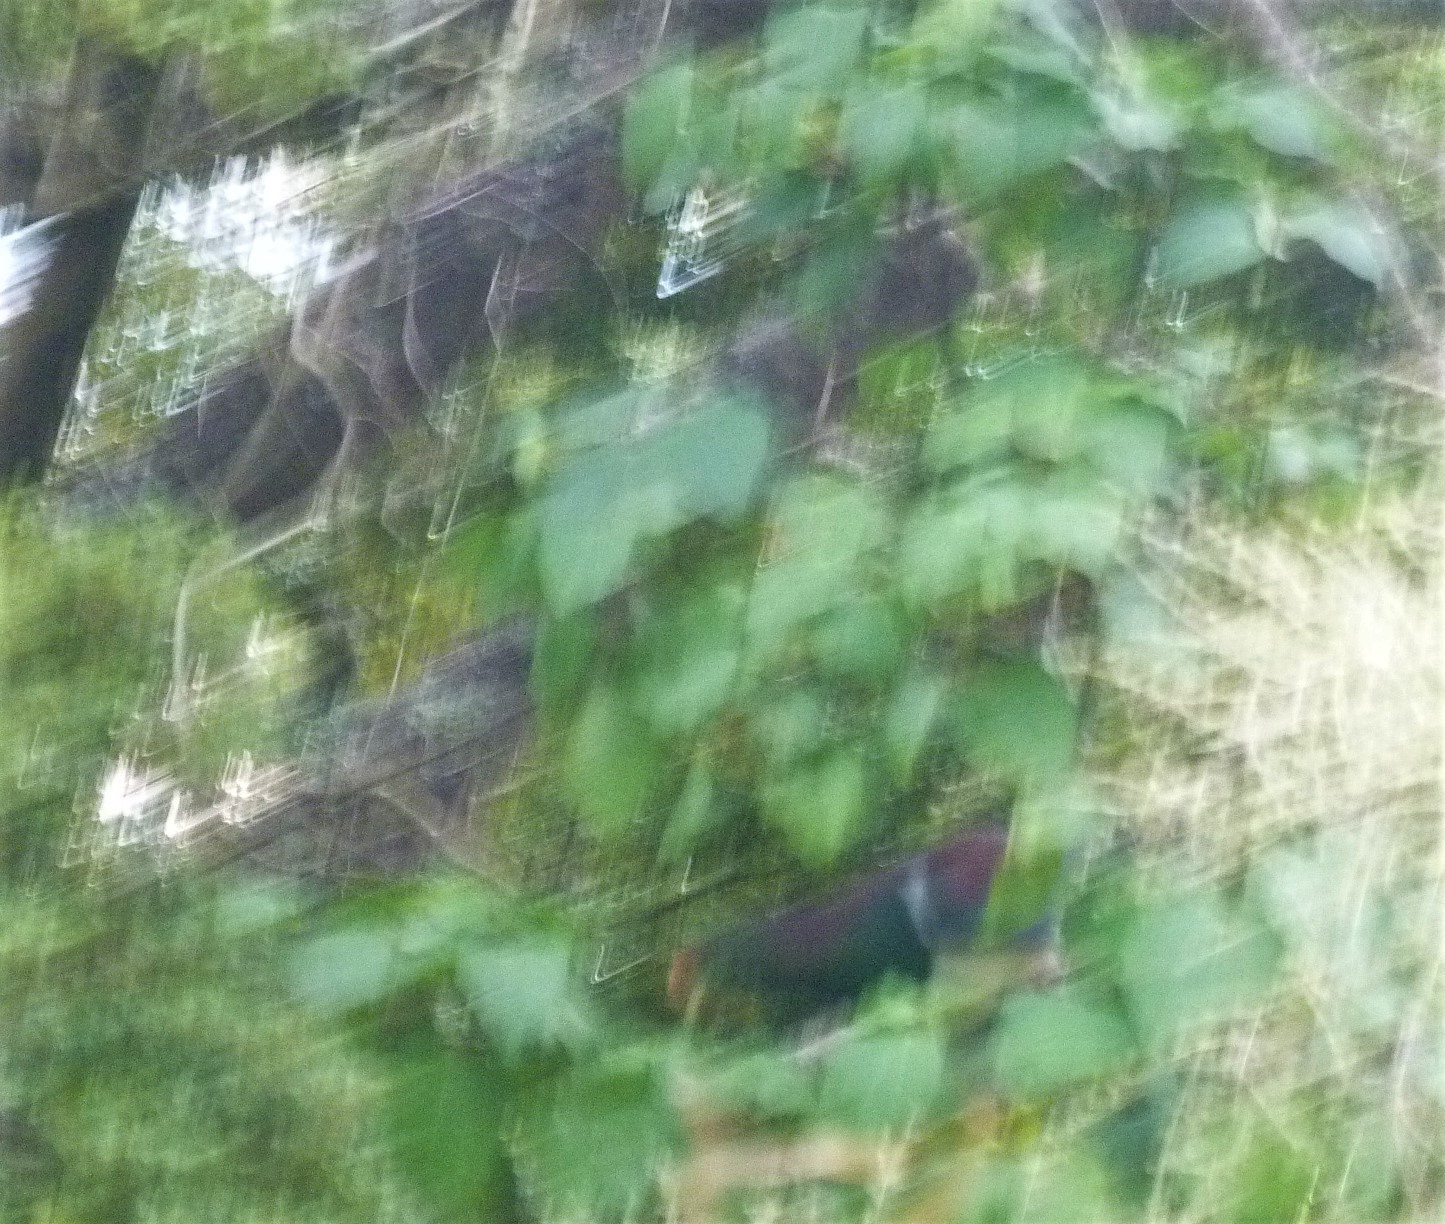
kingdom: Animalia
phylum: Chordata
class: Aves
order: Columbiformes
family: Columbidae
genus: Hemiphaga
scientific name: Hemiphaga novaeseelandiae
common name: New zealand pigeon
